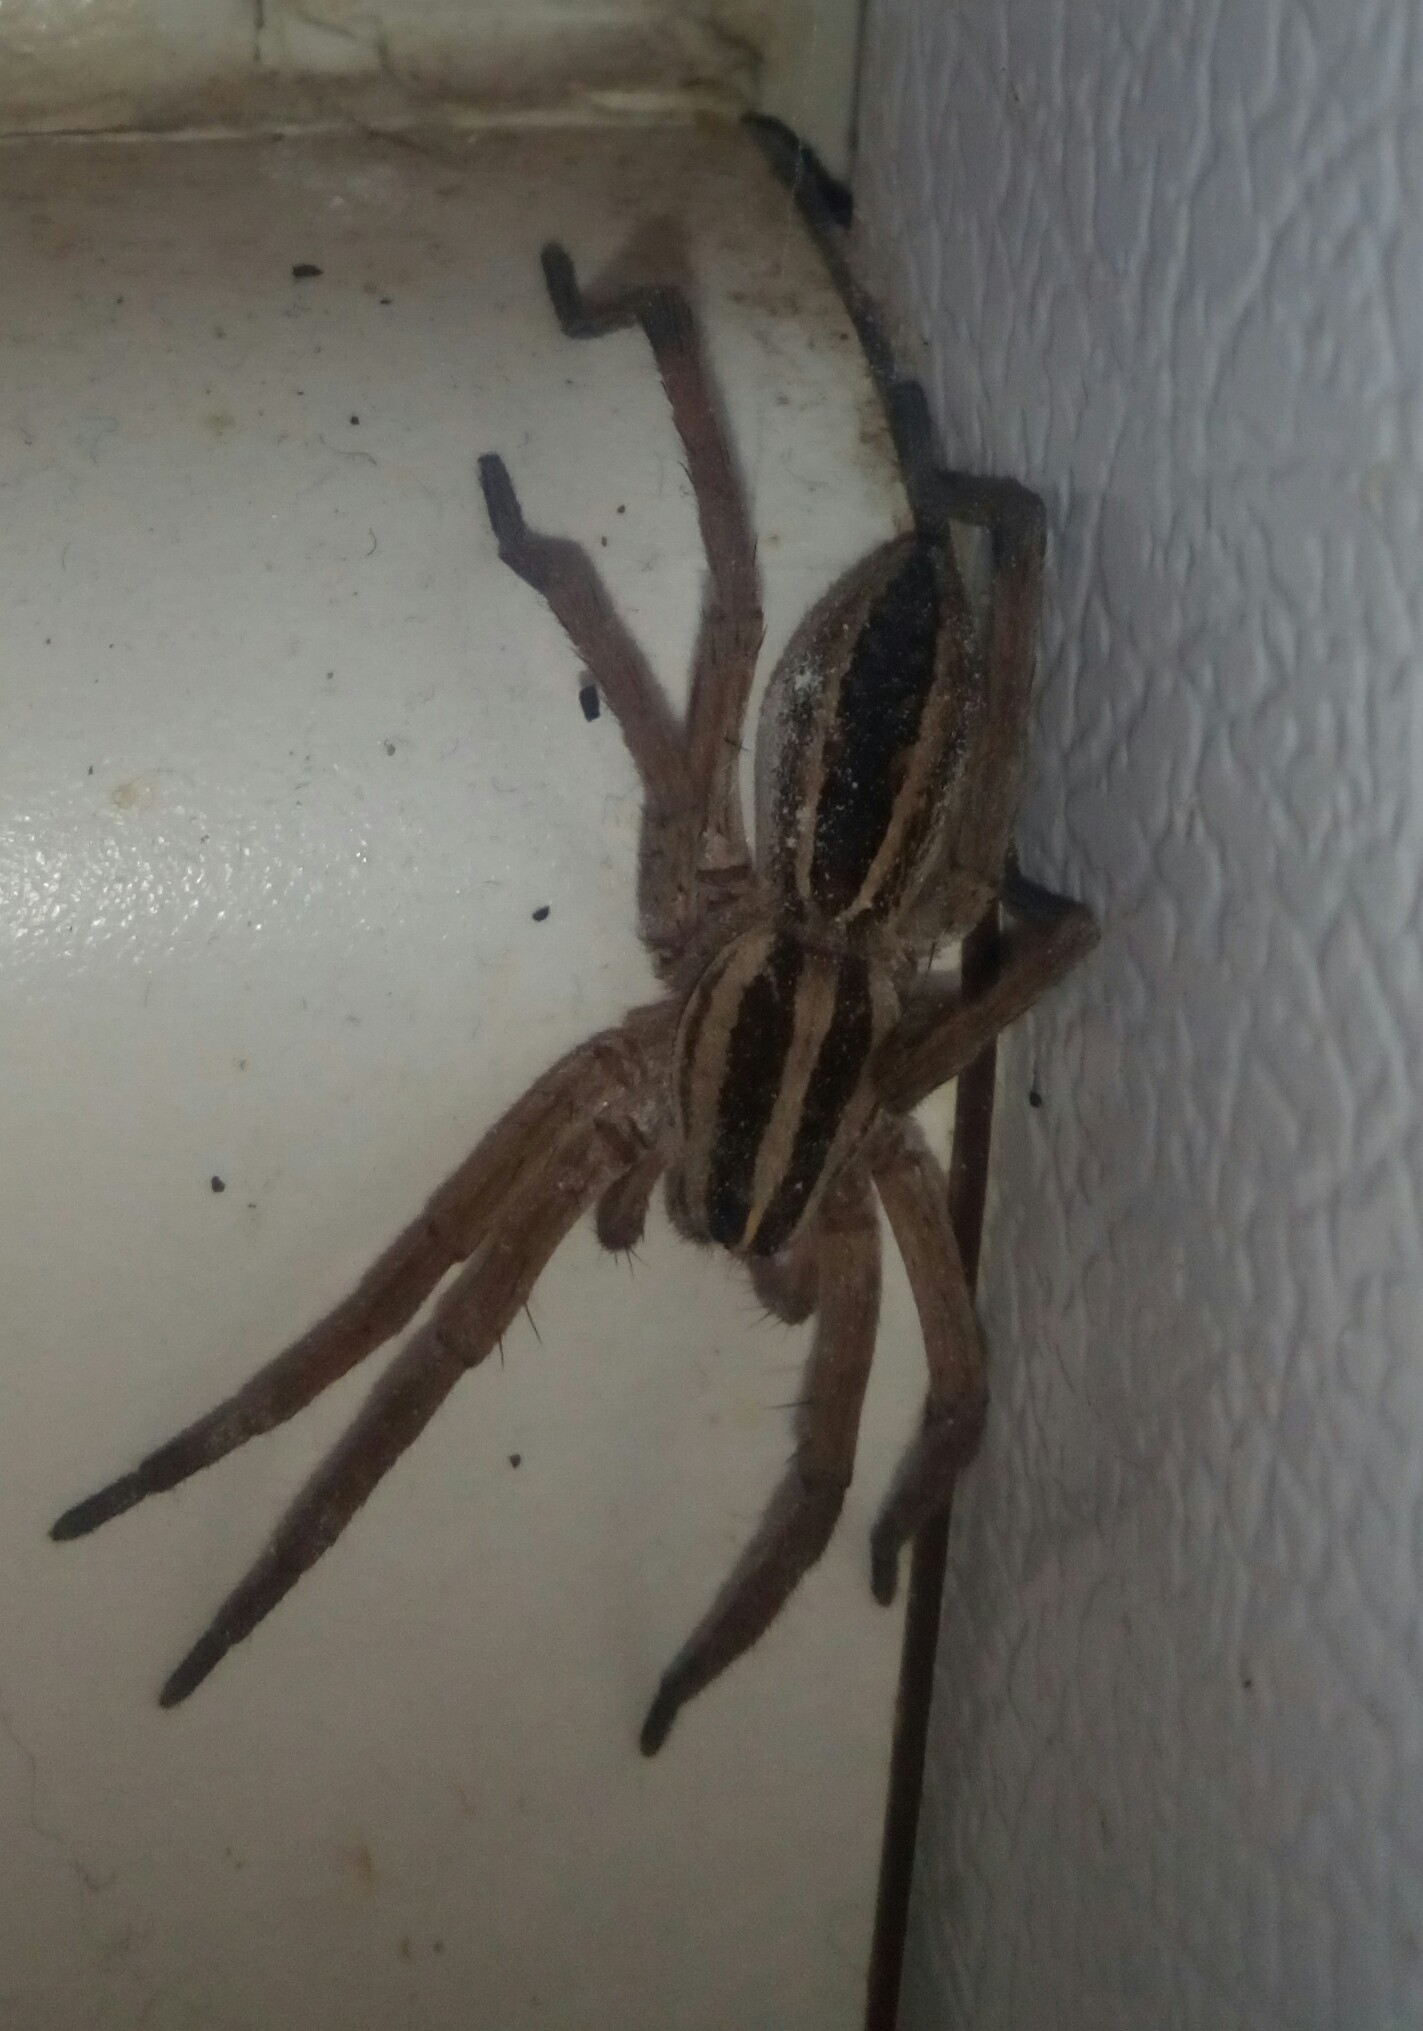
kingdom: Animalia
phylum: Arthropoda
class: Arachnida
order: Araneae
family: Lycosidae
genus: Rabidosa
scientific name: Rabidosa rabida
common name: Rabid wolf spider
